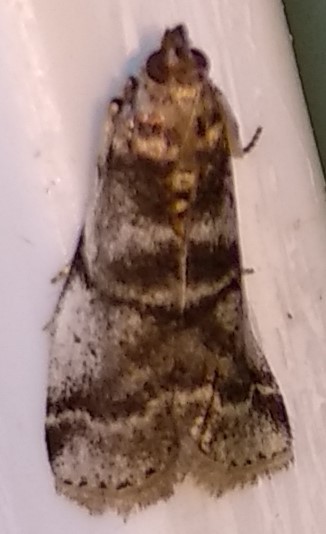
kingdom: Animalia
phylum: Arthropoda
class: Insecta
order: Lepidoptera
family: Pyralidae
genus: Acrobasis
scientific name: Acrobasis indigenella
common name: Leaf crumpler moth
